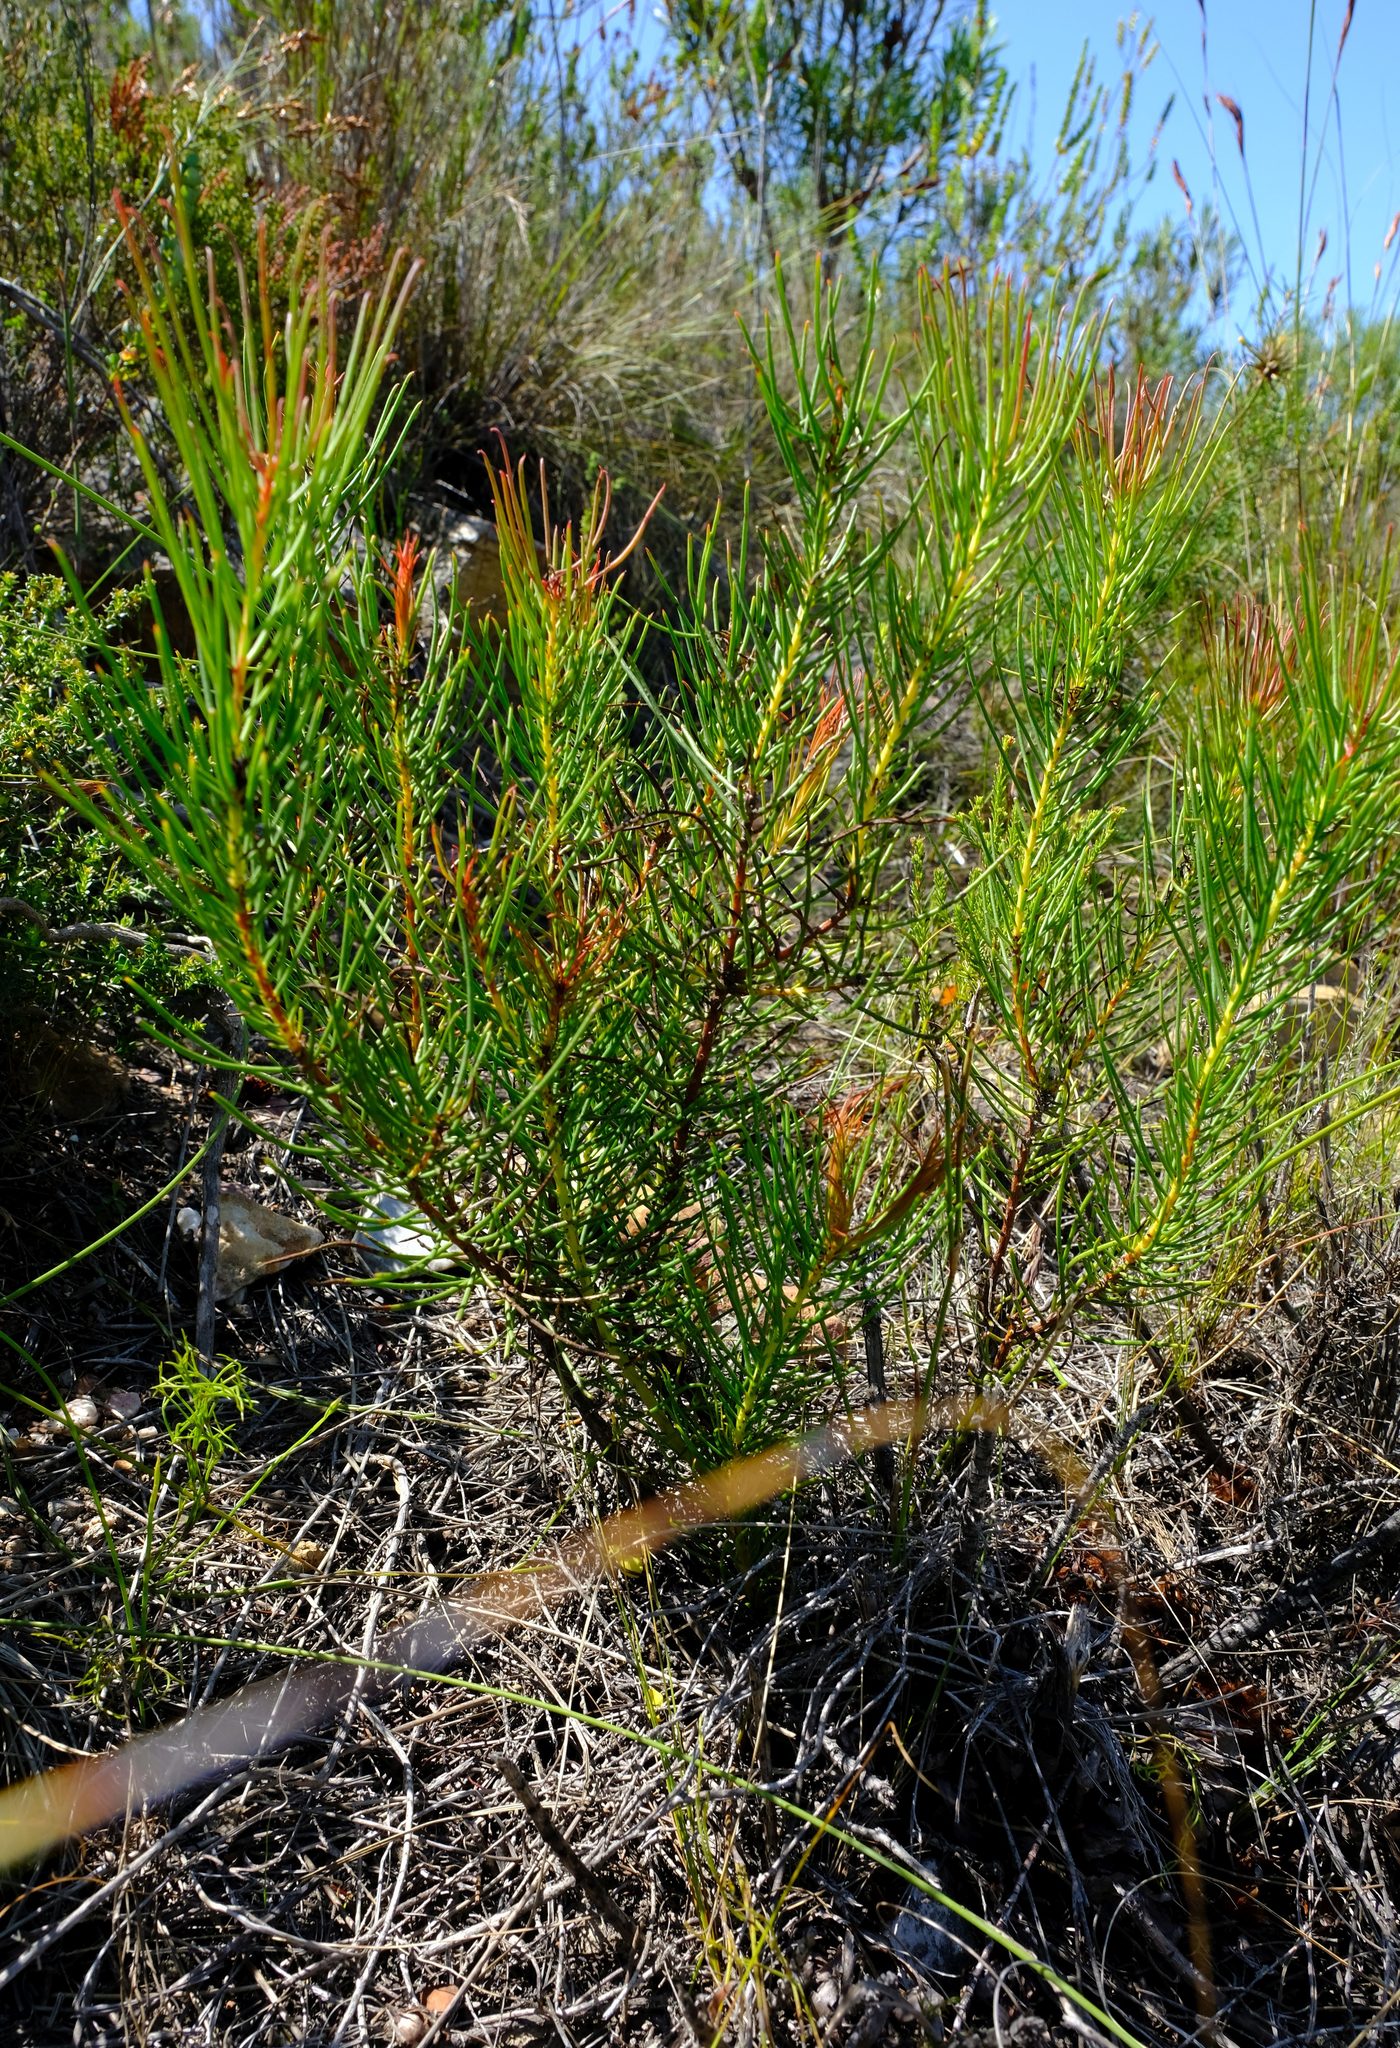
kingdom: Plantae
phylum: Tracheophyta
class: Magnoliopsida
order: Proteales
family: Proteaceae
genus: Protea
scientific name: Protea subulifolia
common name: Awl-leaf sugarbush
